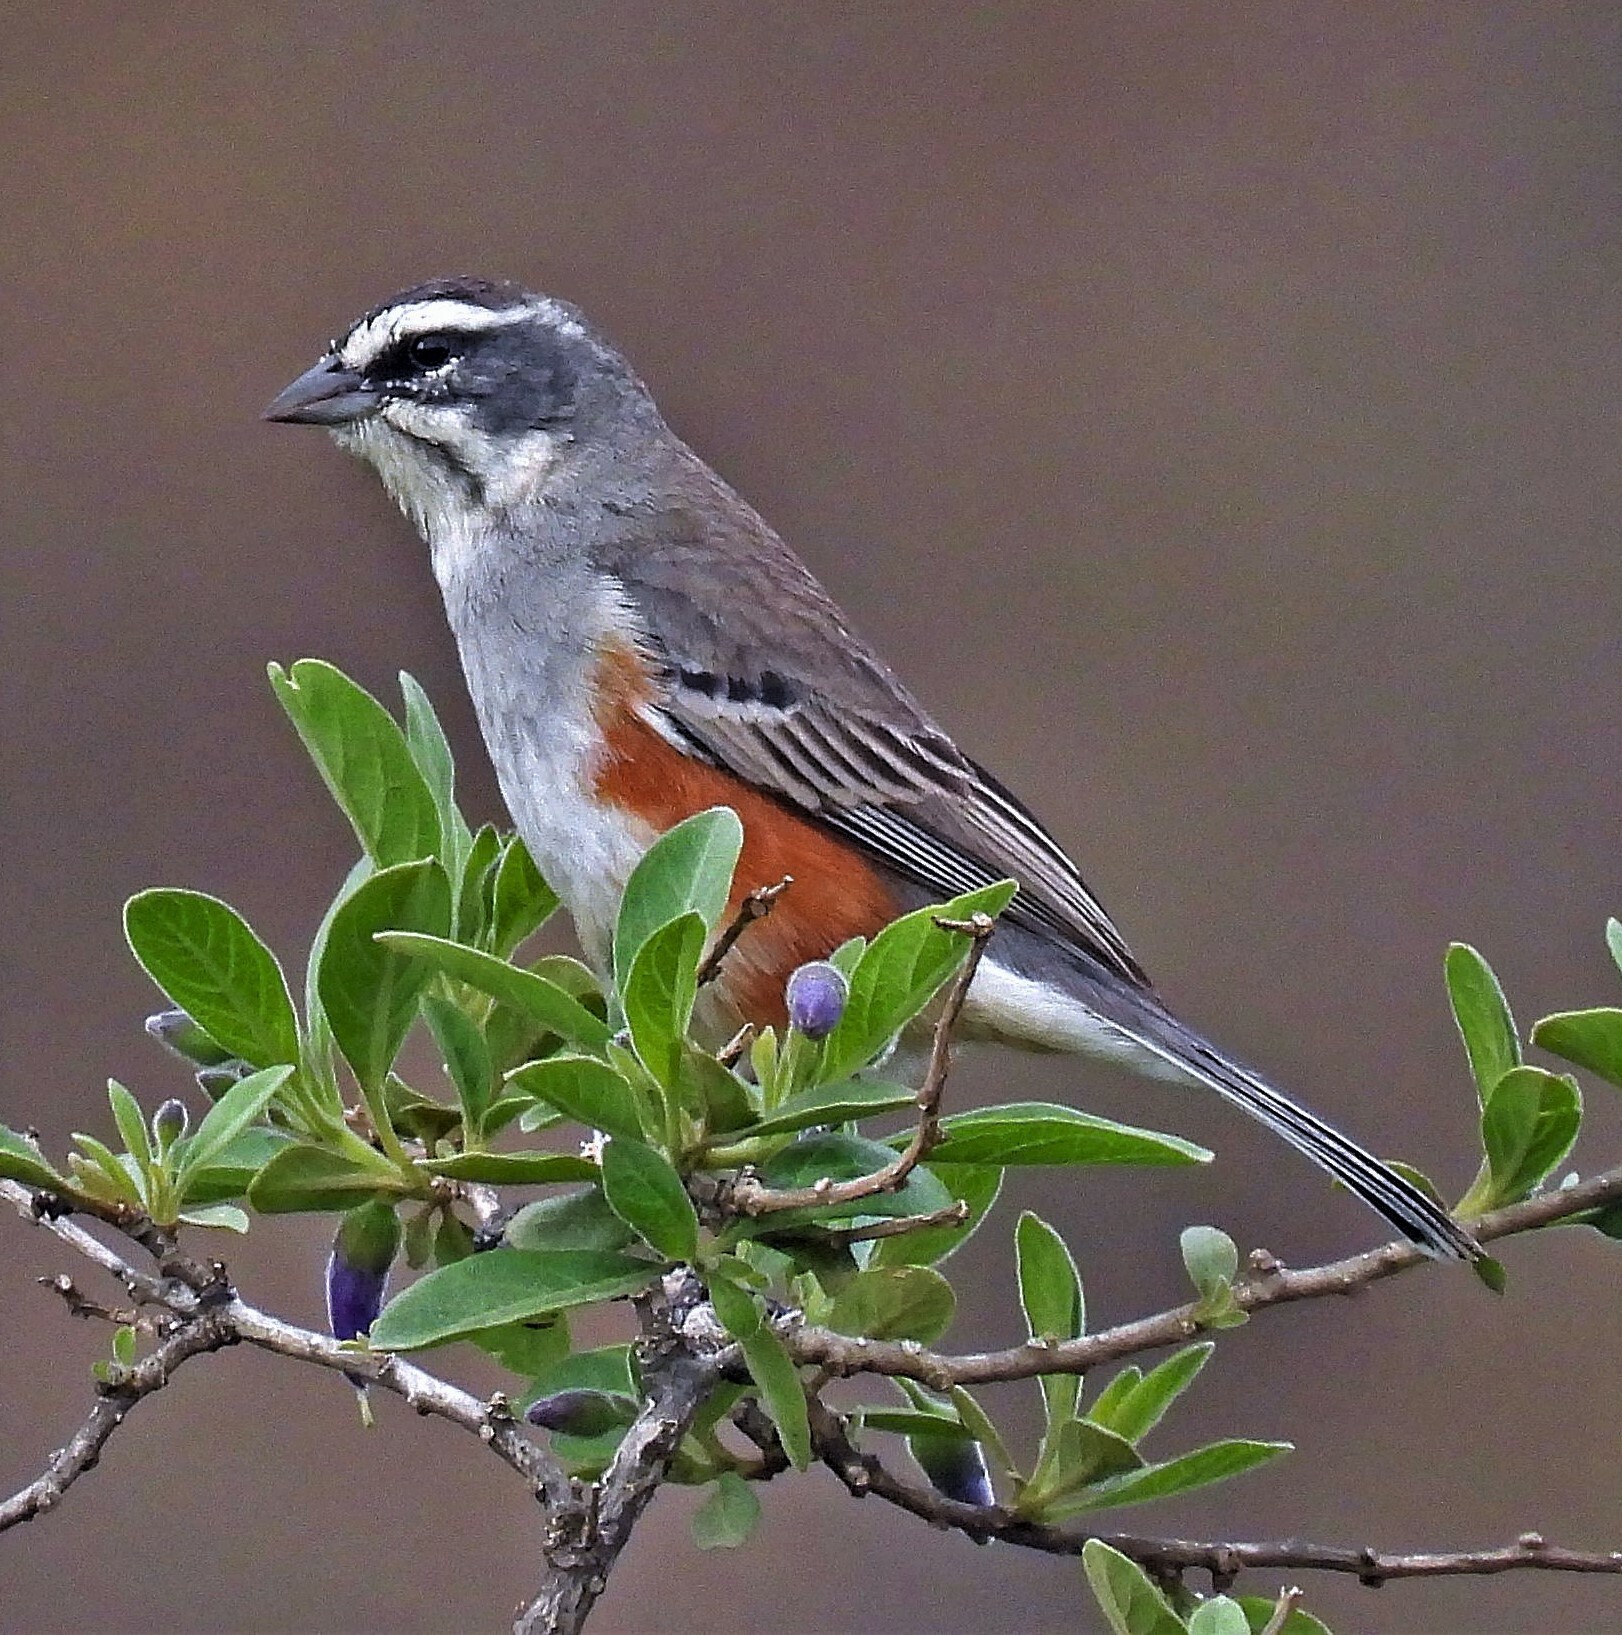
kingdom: Animalia
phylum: Chordata
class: Aves
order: Passeriformes
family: Thraupidae
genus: Poospizopsis
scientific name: Poospizopsis hypocondria
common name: Rufous-sided warbling-finch
